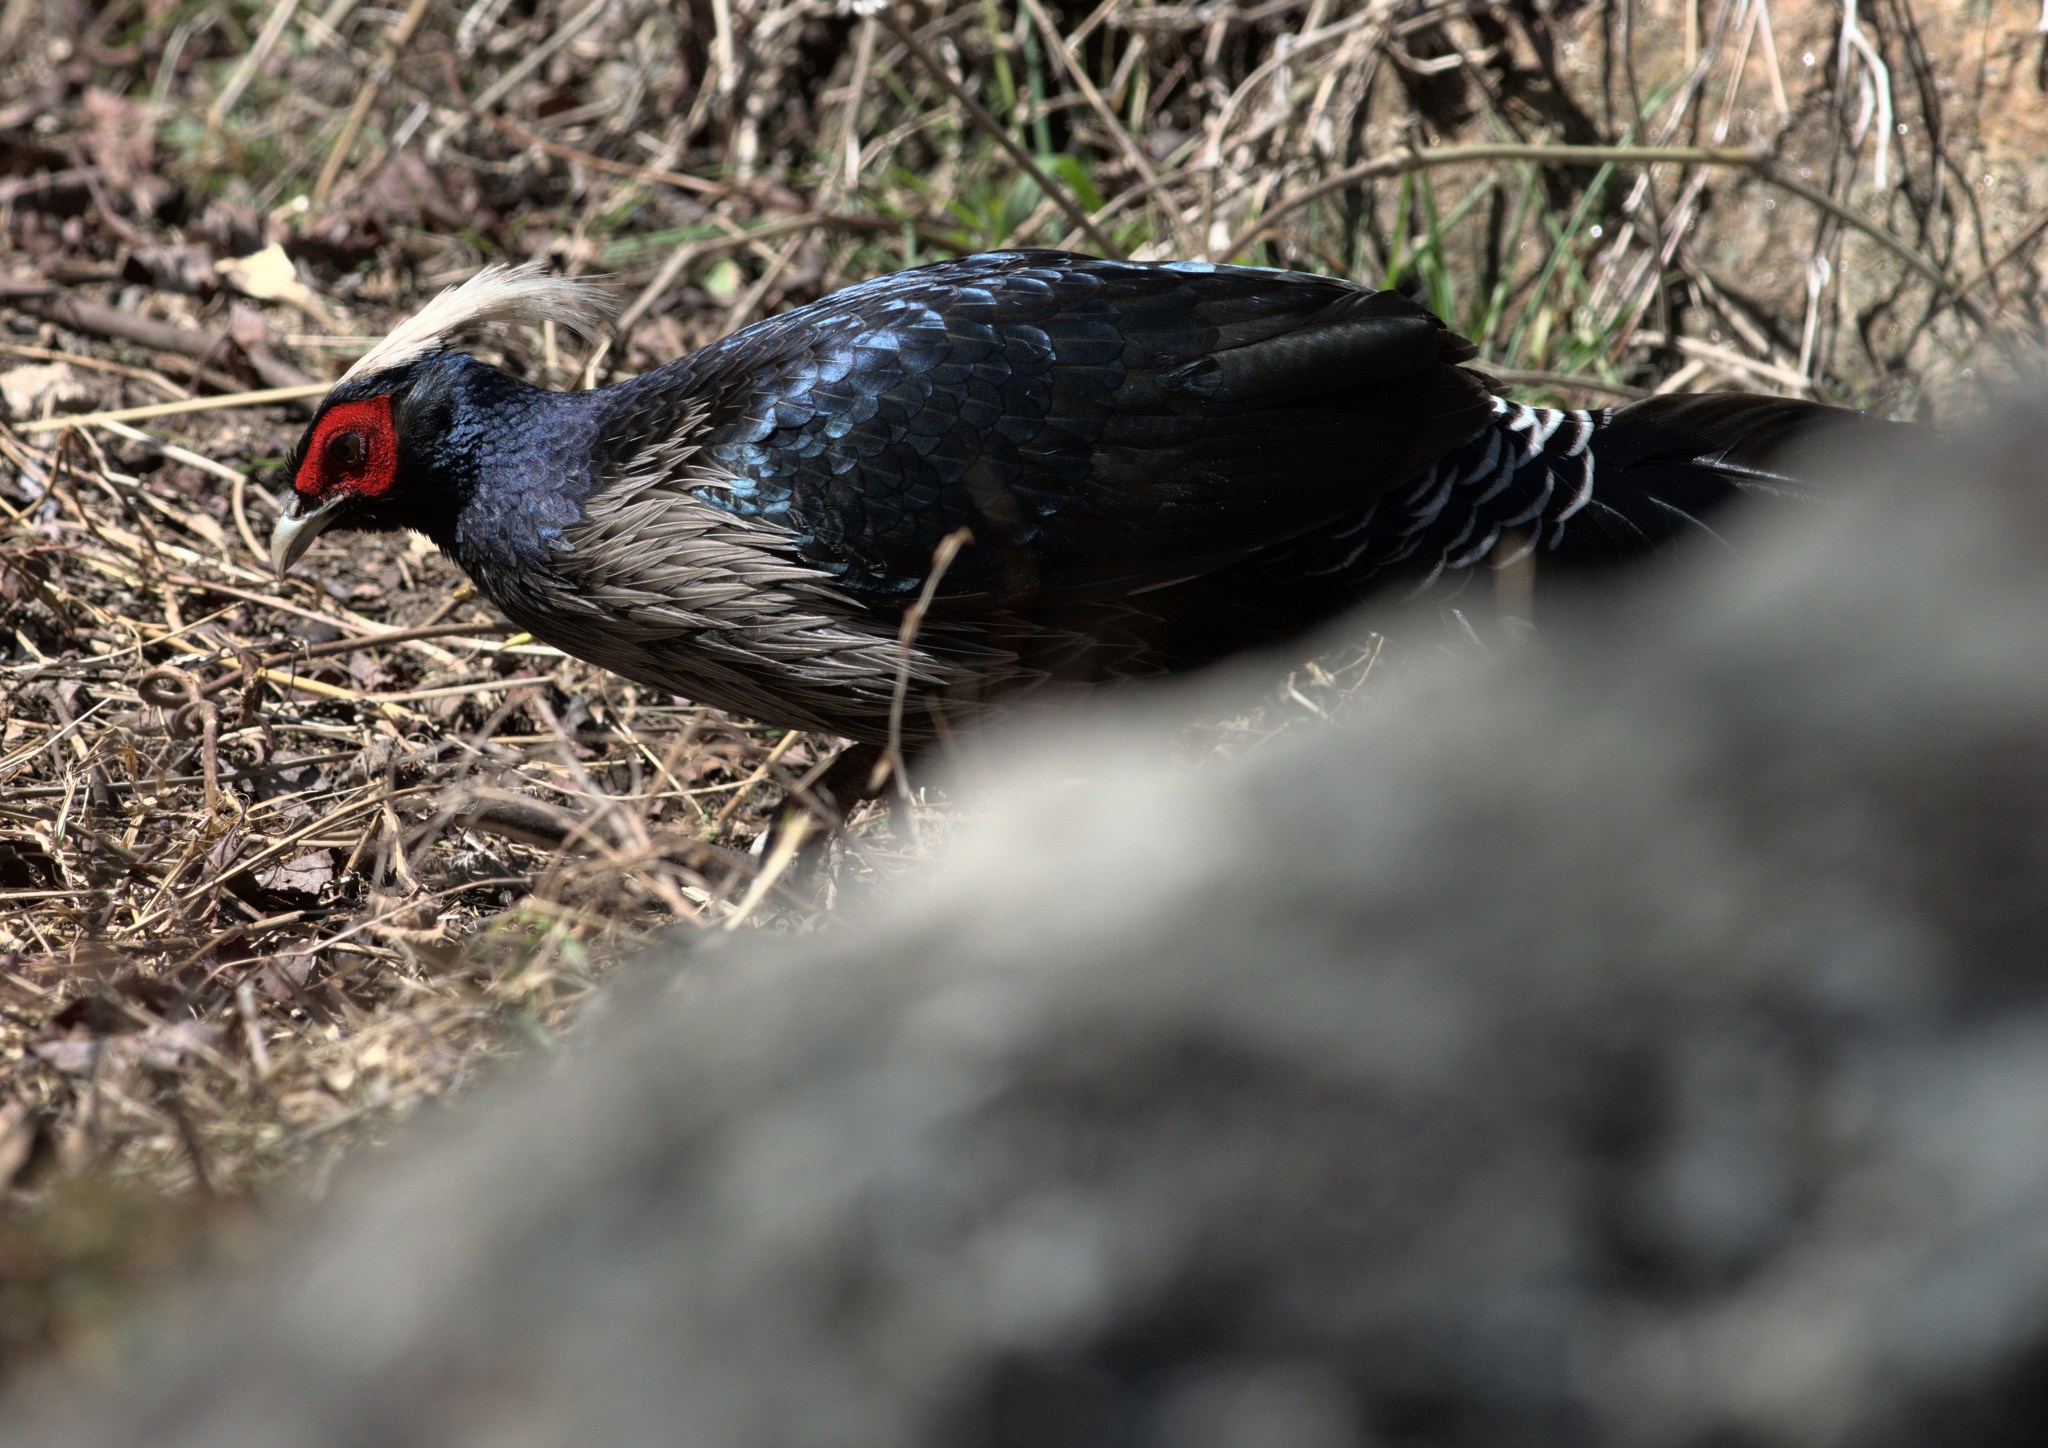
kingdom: Animalia
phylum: Chordata
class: Aves
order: Galliformes
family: Phasianidae
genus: Lophura
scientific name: Lophura leucomelanos
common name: Kalij pheasant
